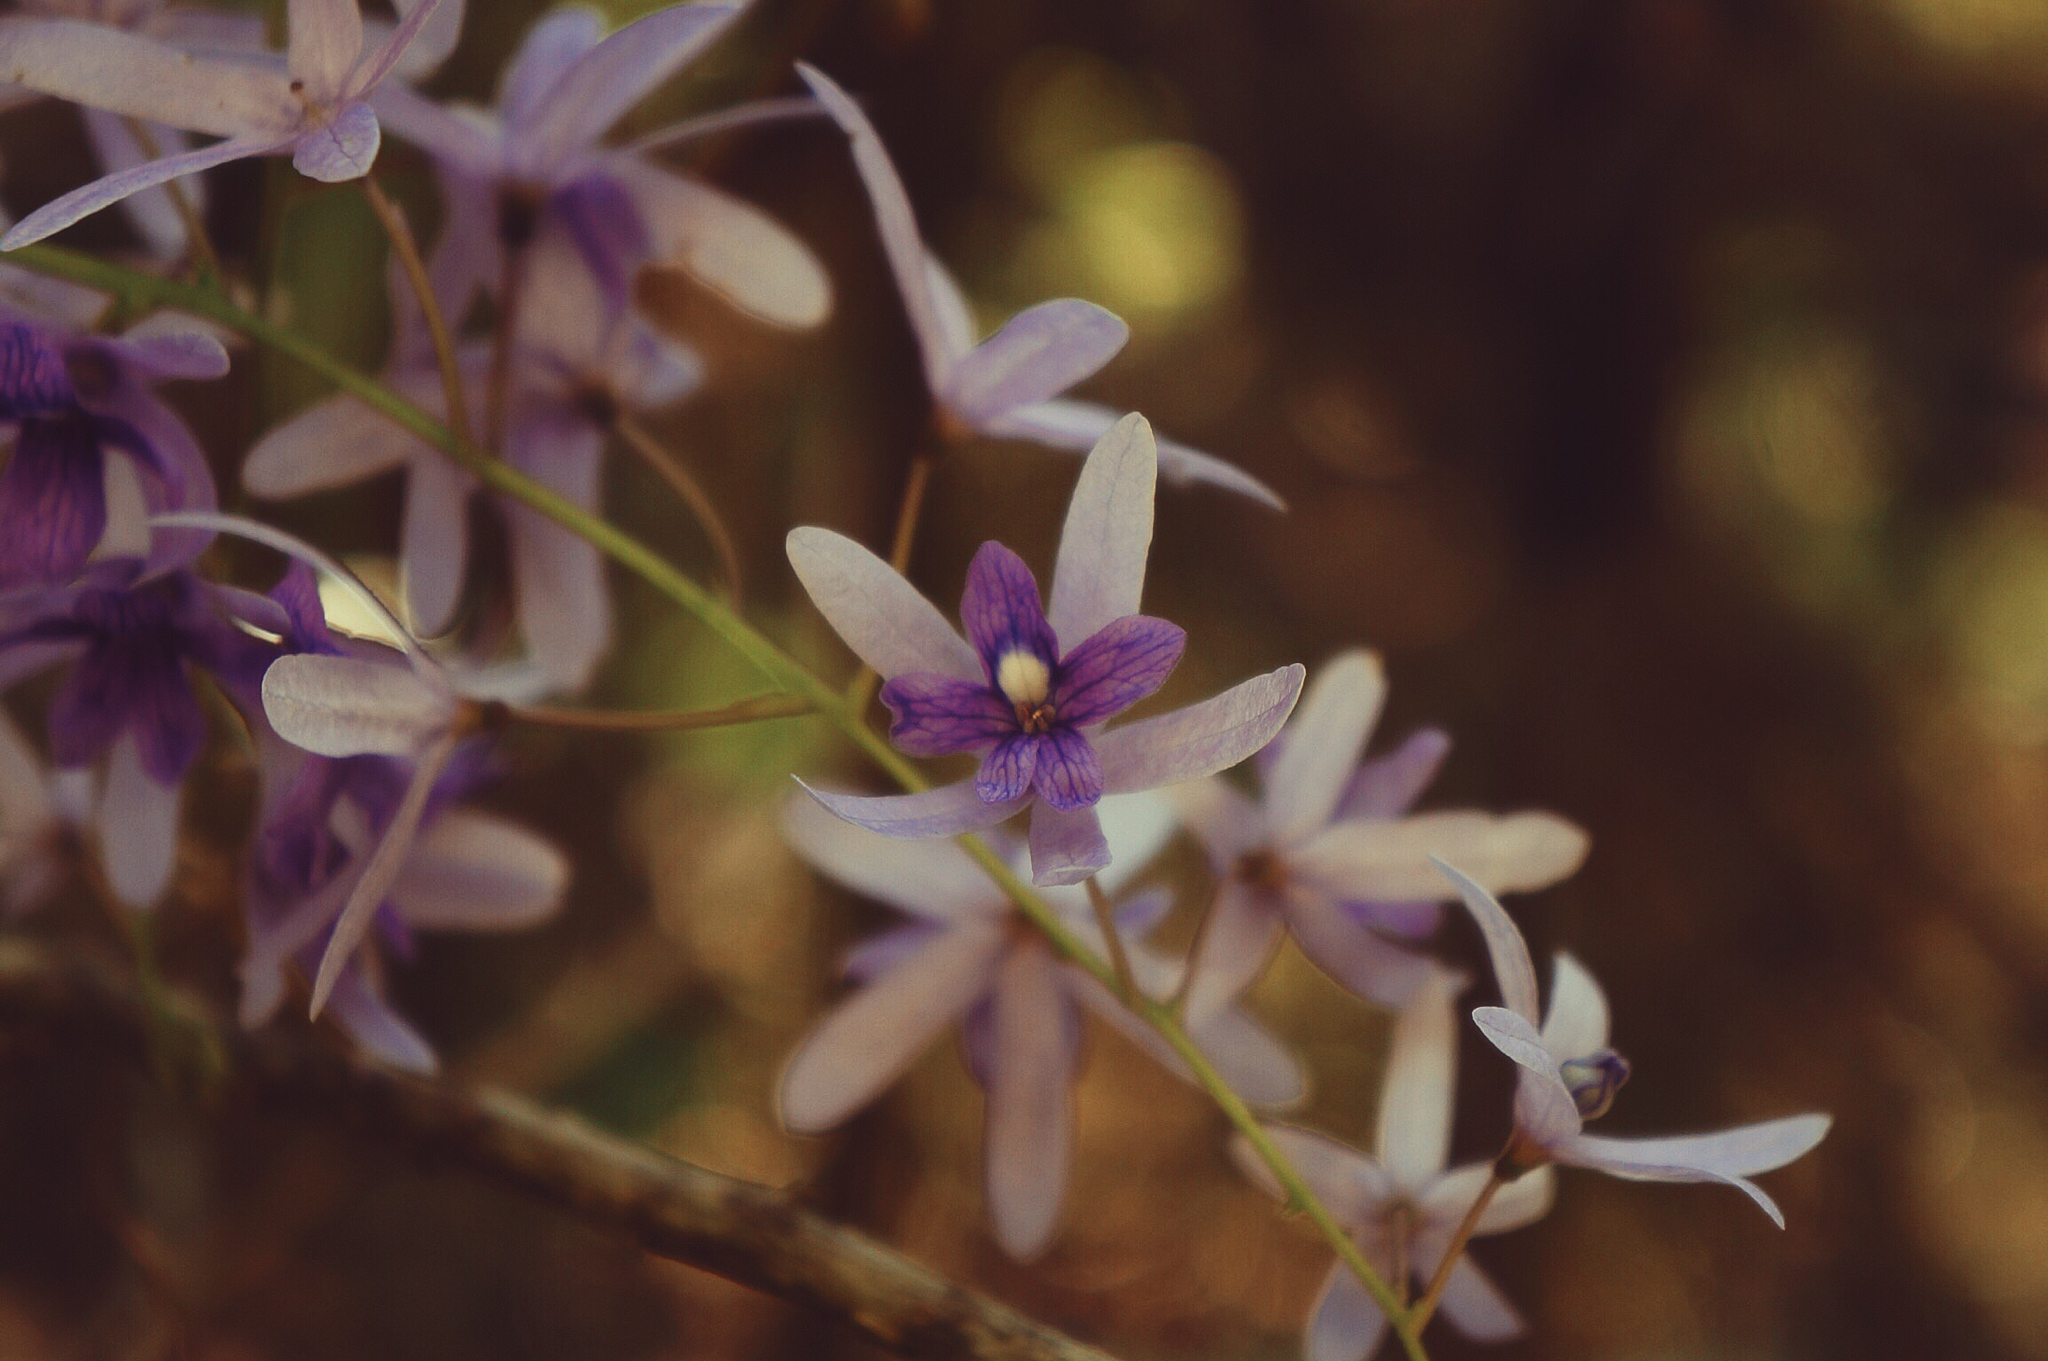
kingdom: Plantae
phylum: Tracheophyta
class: Magnoliopsida
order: Lamiales
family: Verbenaceae
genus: Petrea
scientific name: Petrea volubilis
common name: Queen's-wreath
